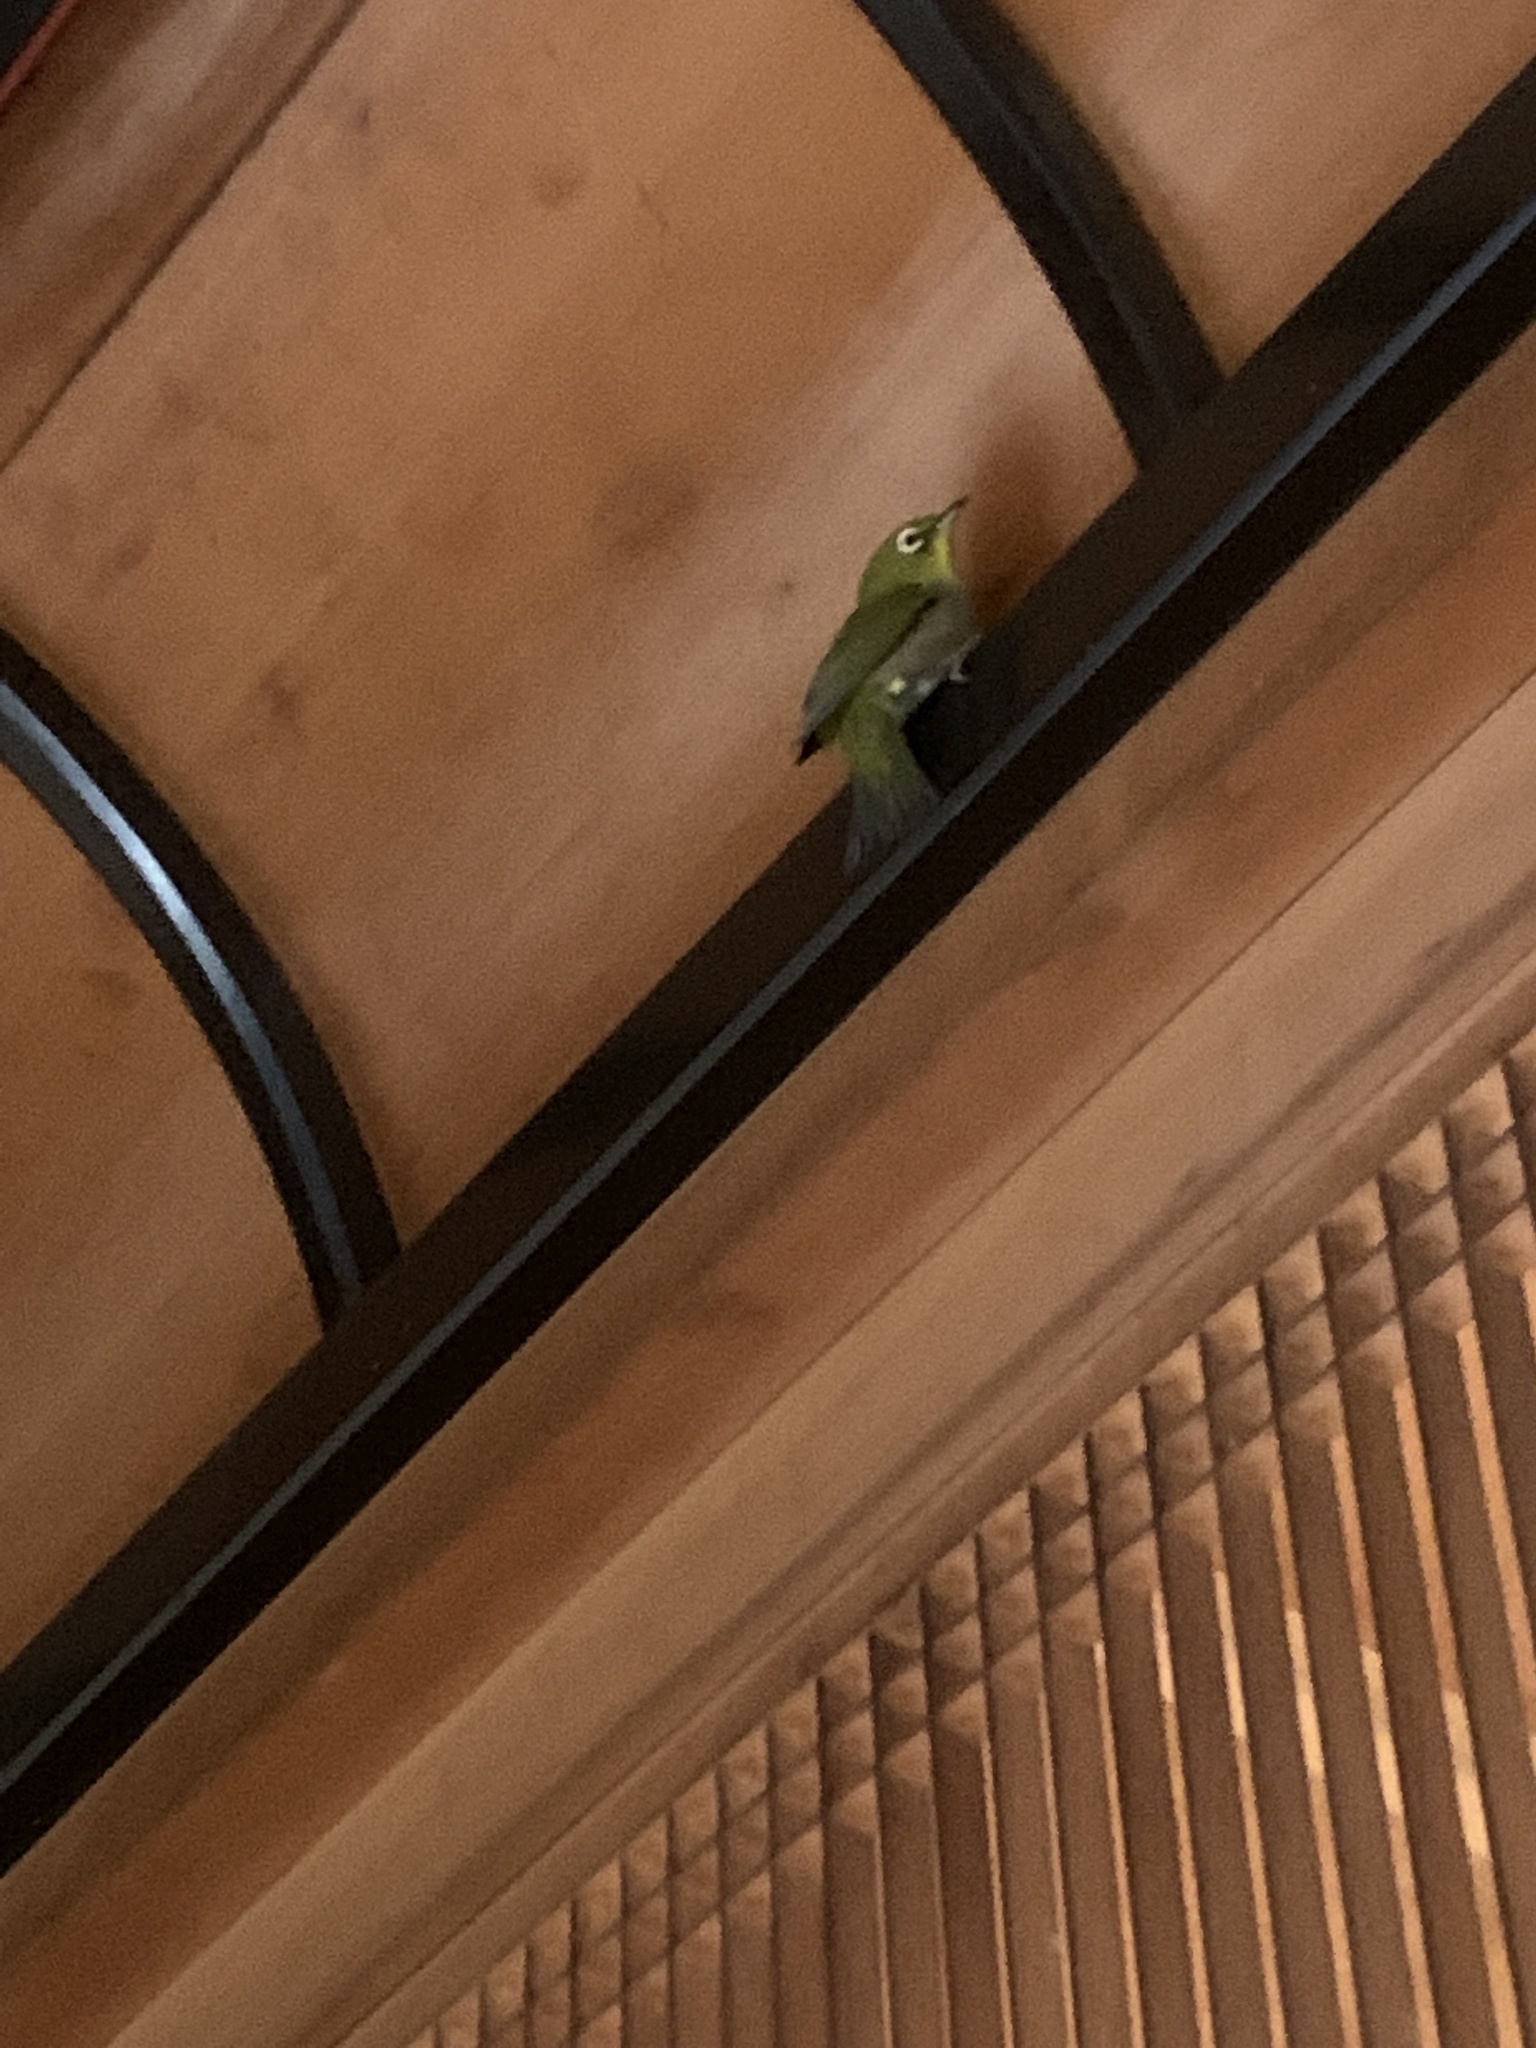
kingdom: Animalia
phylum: Chordata
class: Aves
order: Passeriformes
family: Zosteropidae
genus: Zosterops
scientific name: Zosterops japonicus
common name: Japanese white-eye
